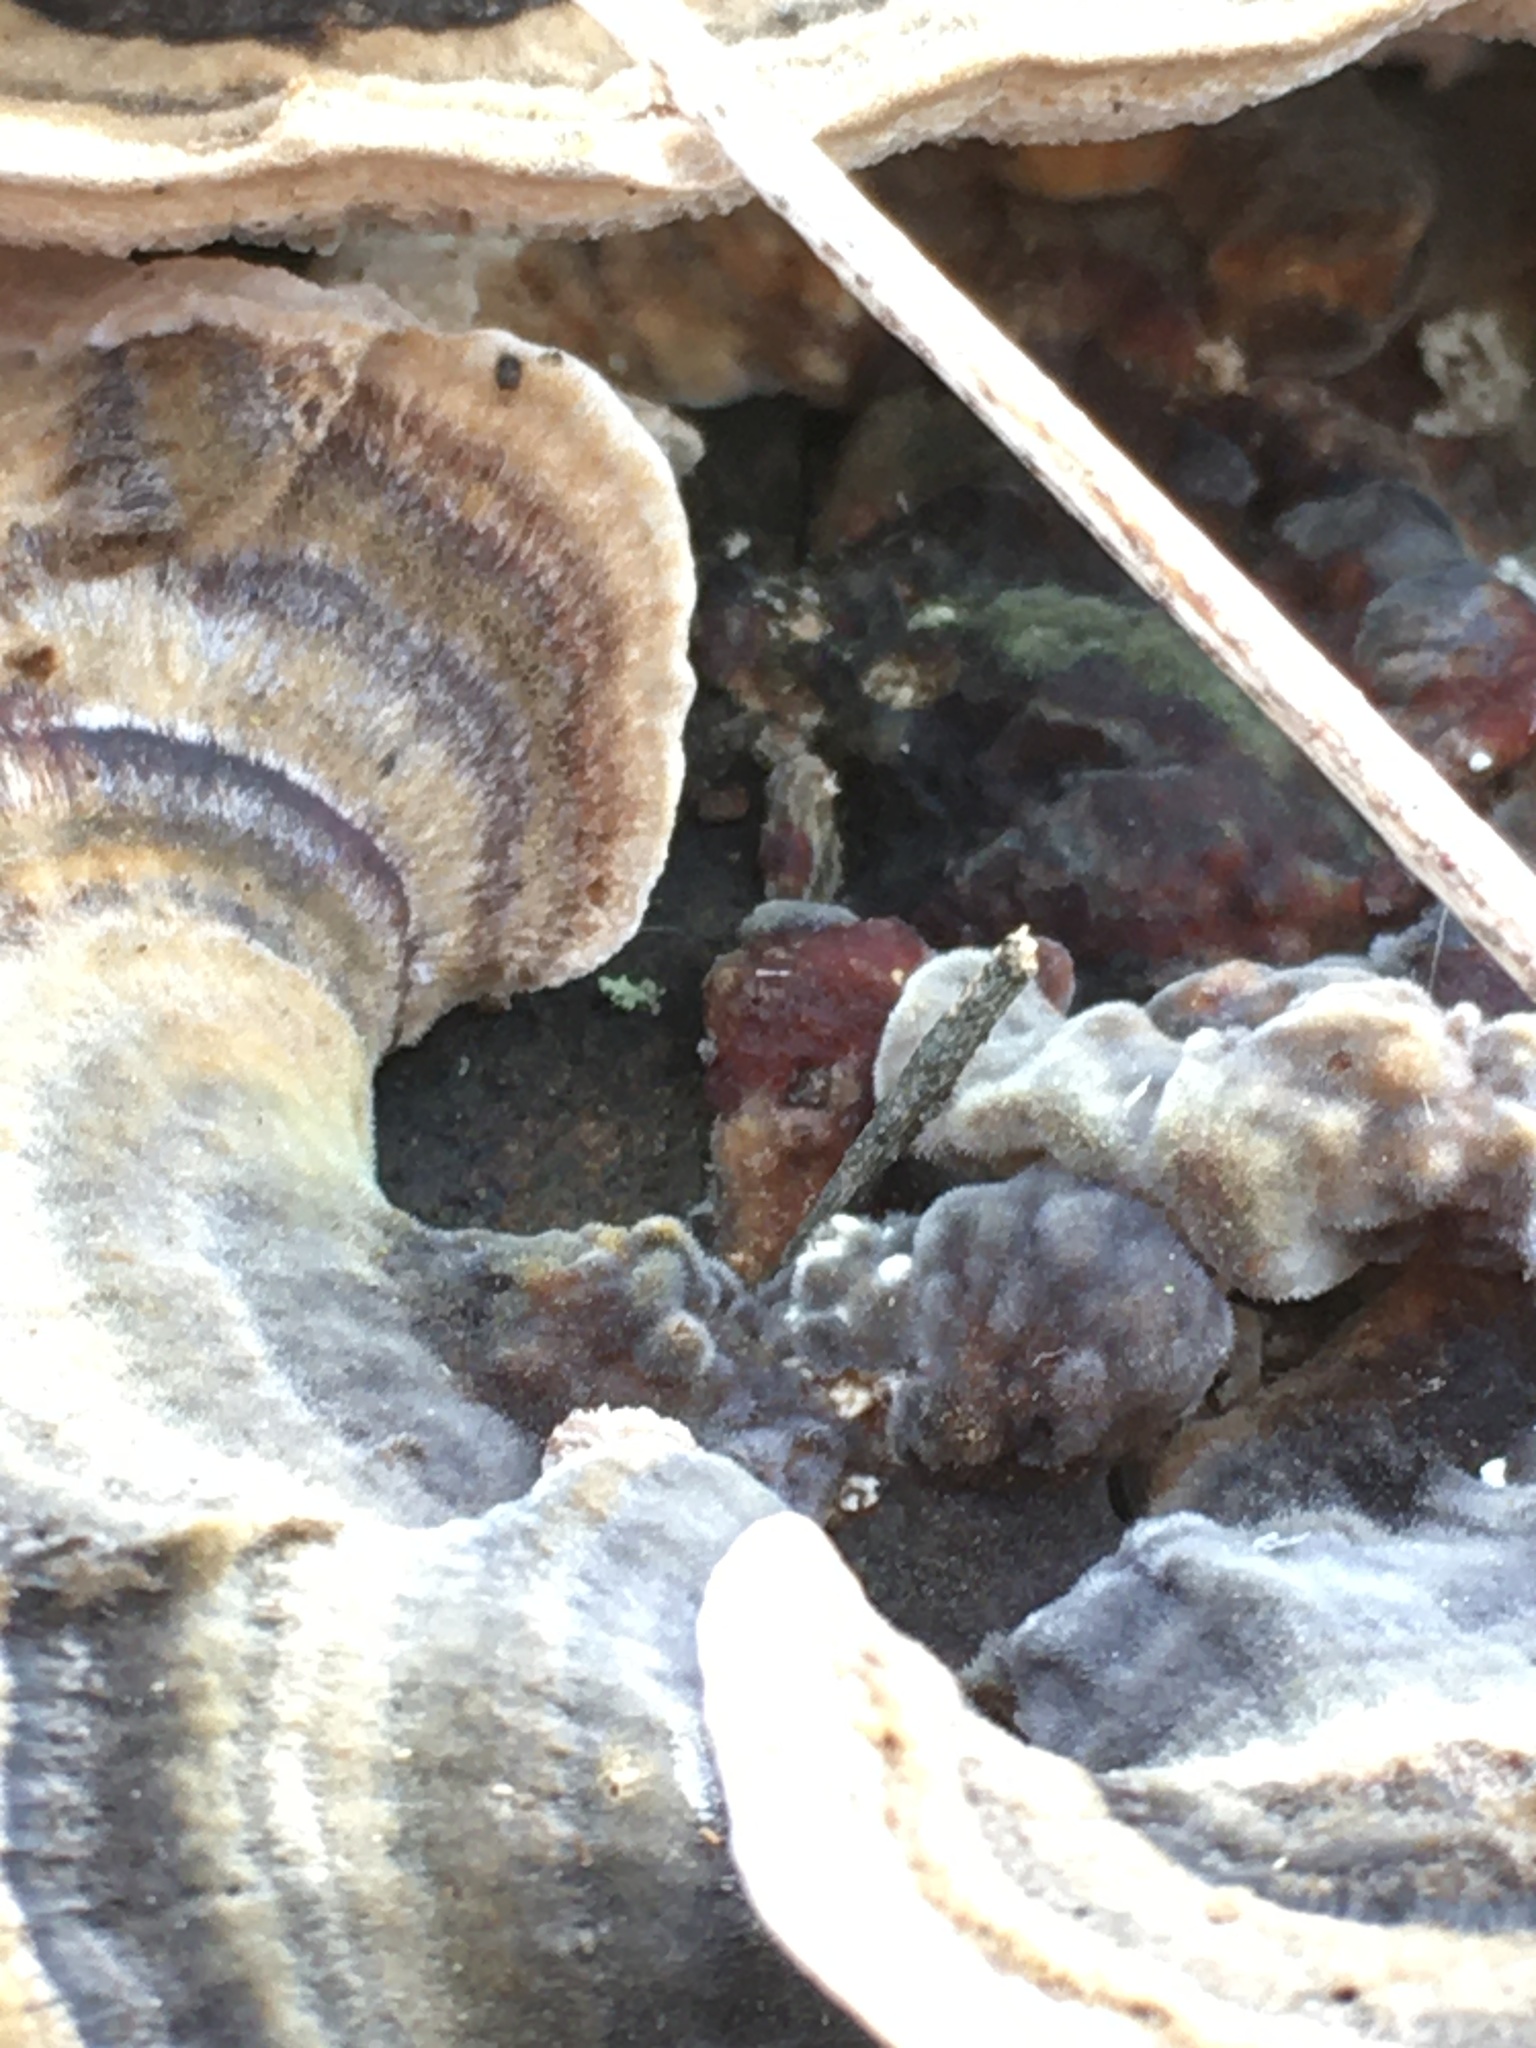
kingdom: Fungi
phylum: Basidiomycota
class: Agaricomycetes
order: Polyporales
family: Polyporaceae
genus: Trametes
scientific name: Trametes versicolor
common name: Turkeytail
